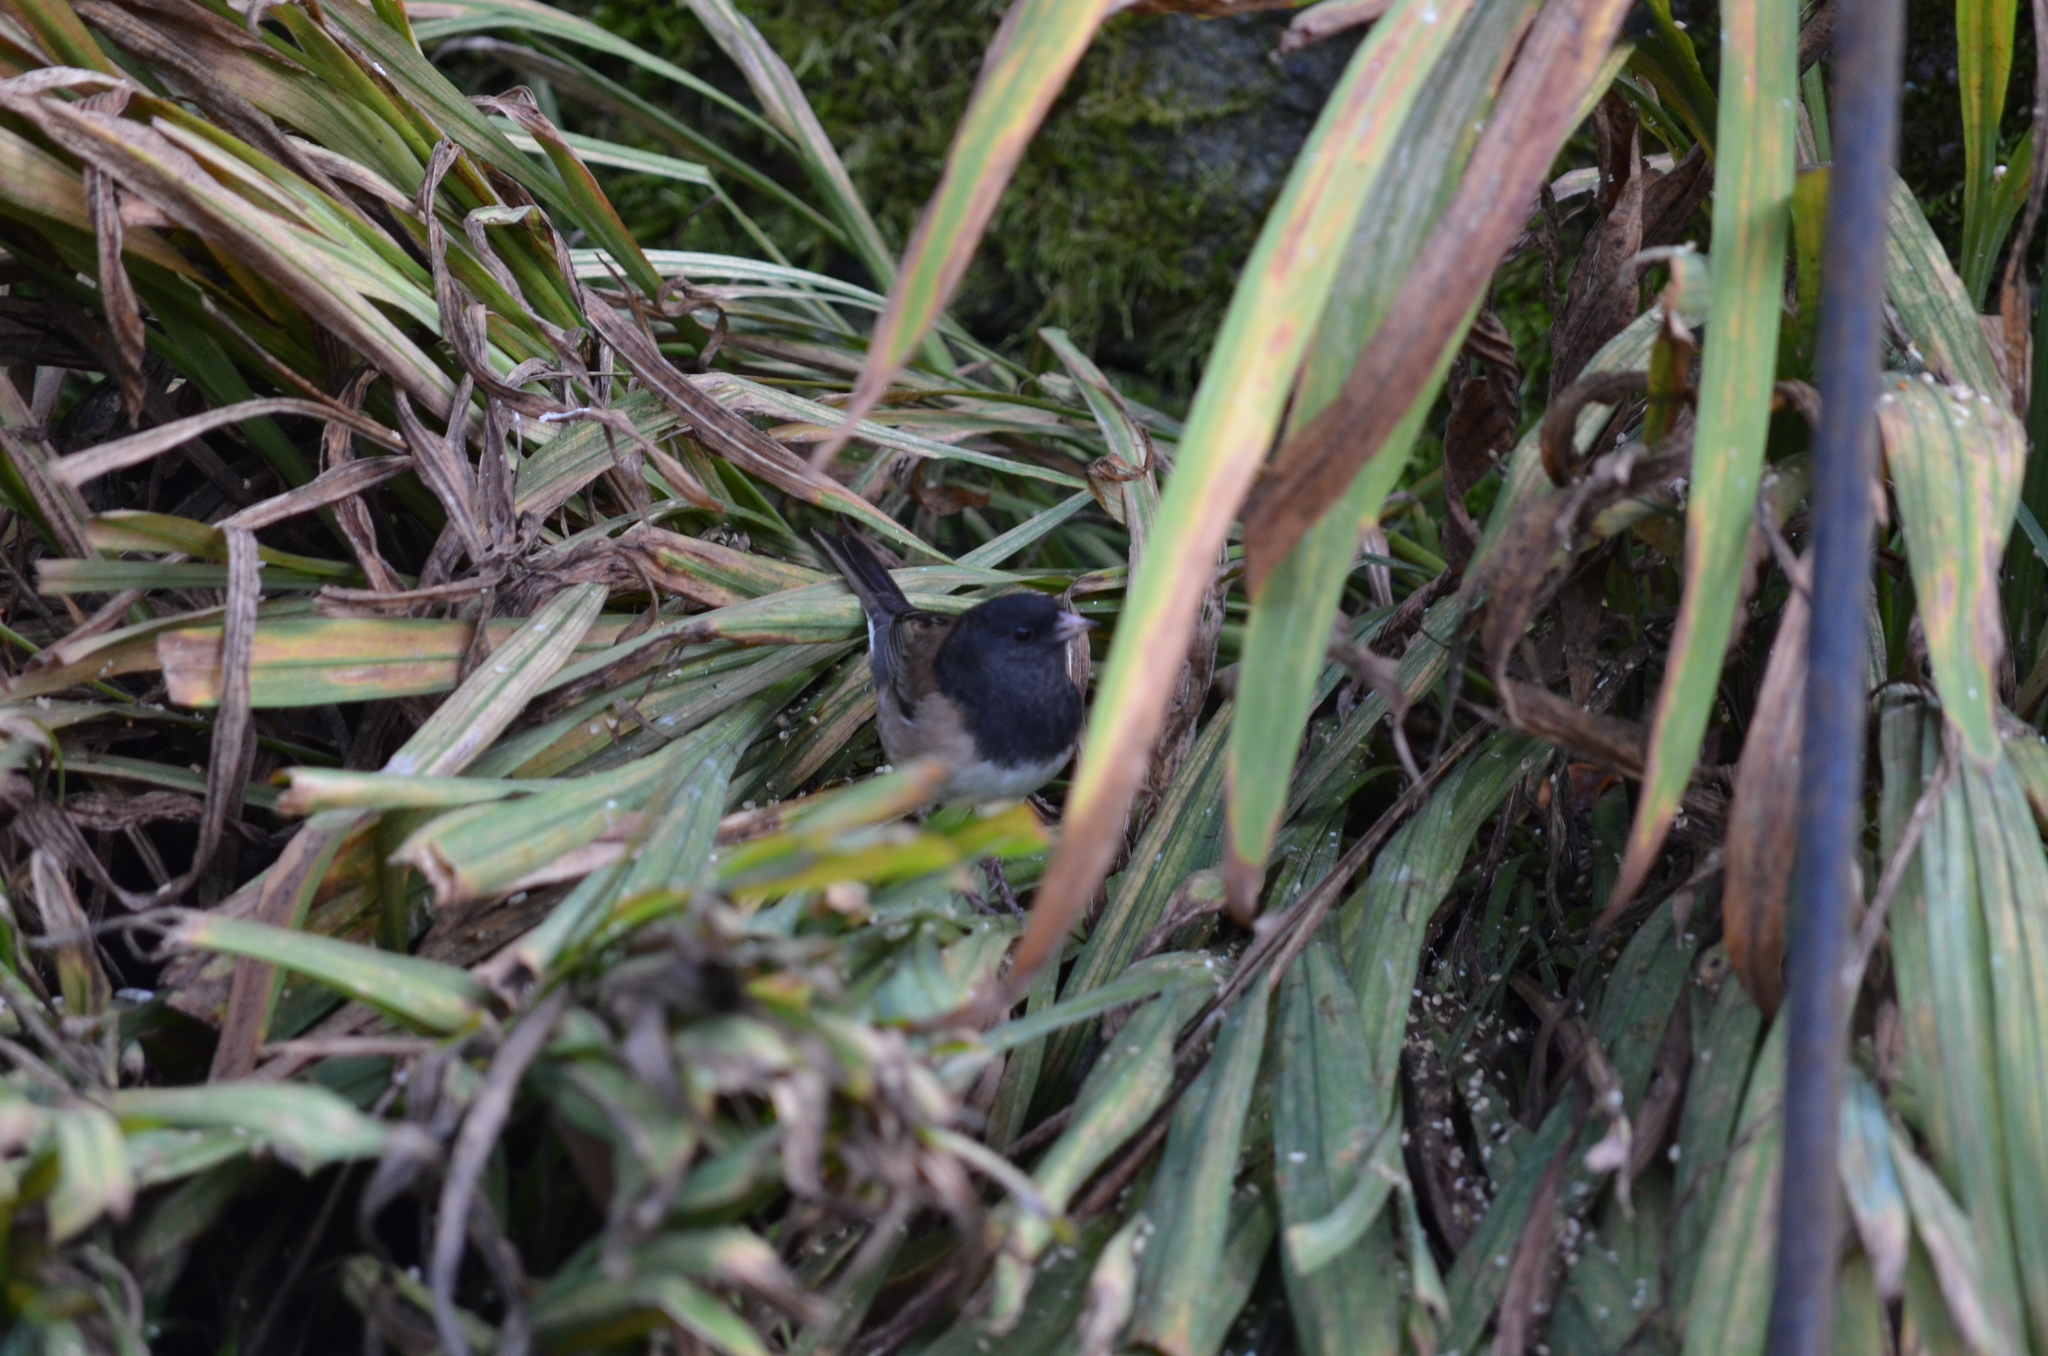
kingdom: Animalia
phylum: Chordata
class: Aves
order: Passeriformes
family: Passerellidae
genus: Junco
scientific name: Junco hyemalis
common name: Dark-eyed junco
